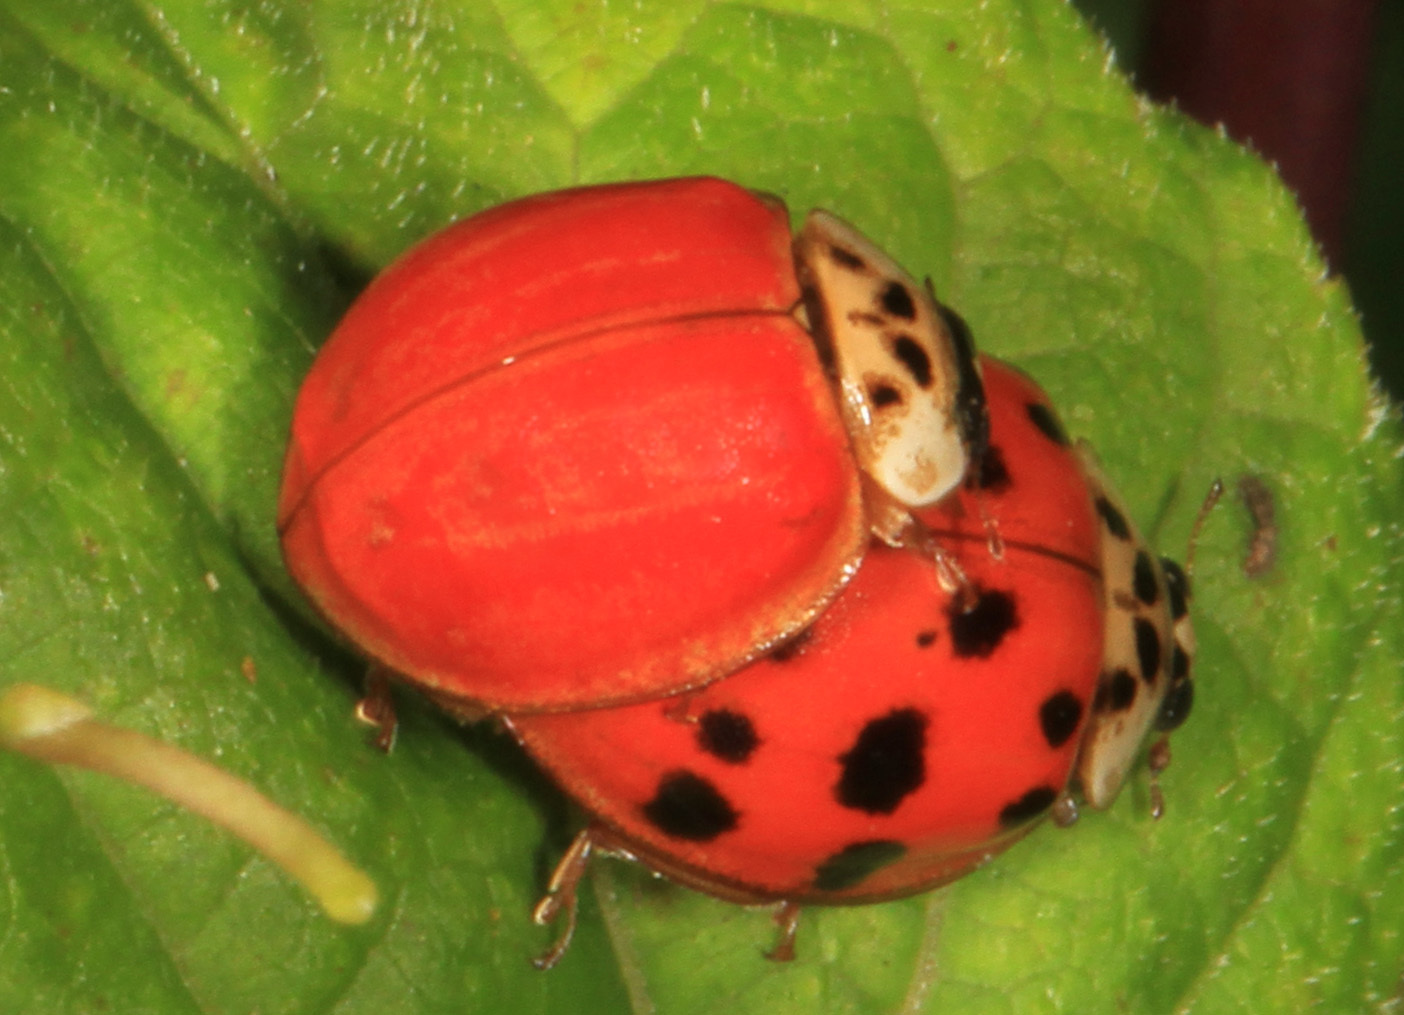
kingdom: Animalia
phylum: Arthropoda
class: Insecta
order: Coleoptera
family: Coccinellidae
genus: Harmonia
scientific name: Harmonia axyridis
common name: Harlequin ladybird
